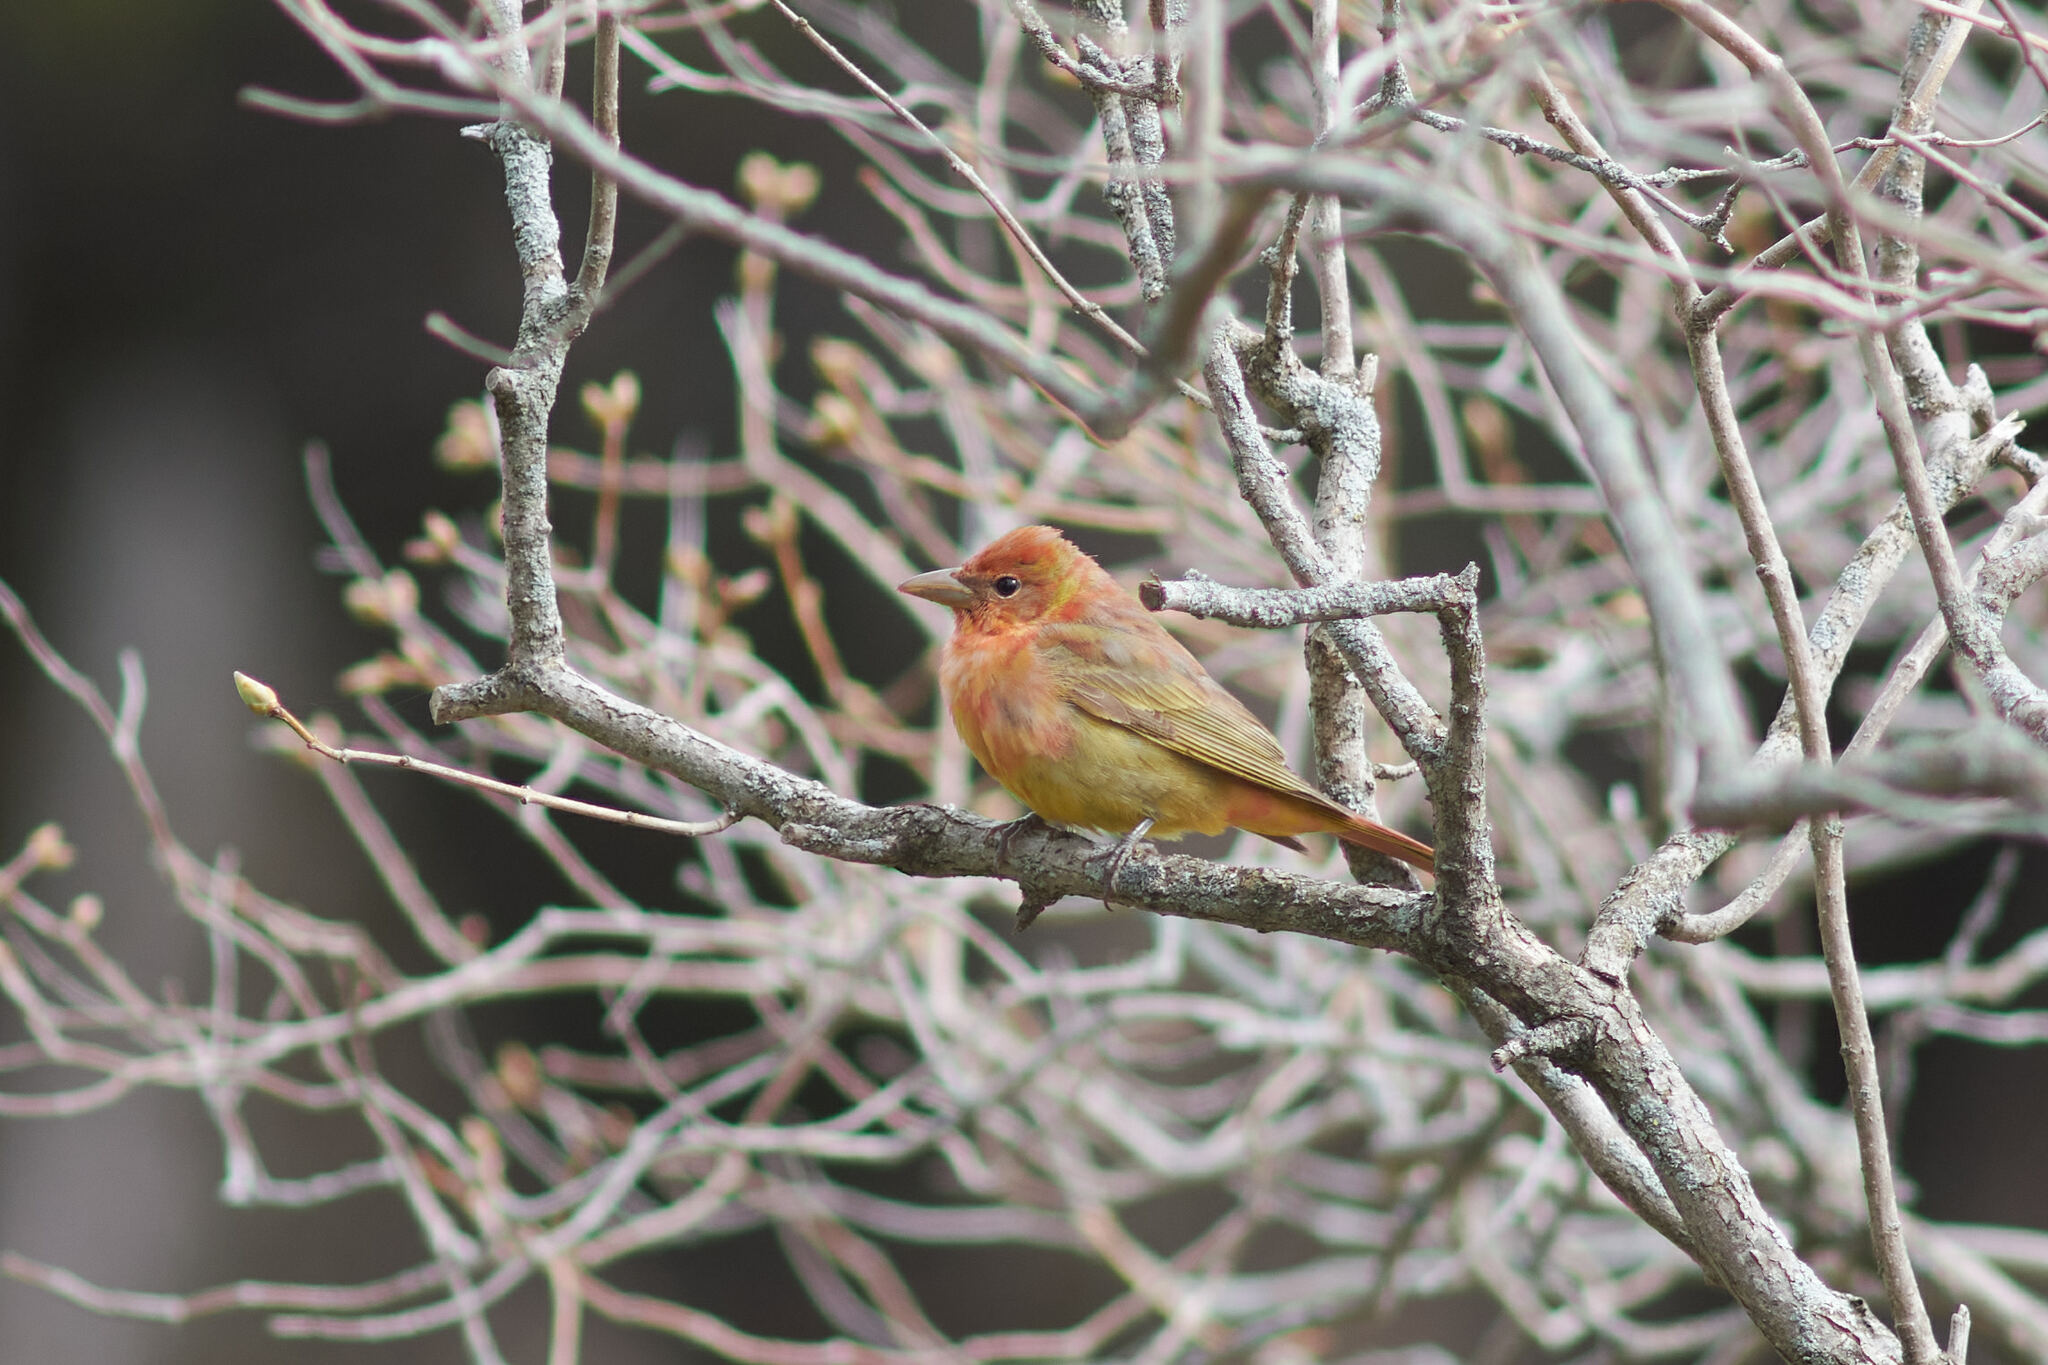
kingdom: Animalia
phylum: Chordata
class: Aves
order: Passeriformes
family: Cardinalidae
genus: Piranga
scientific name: Piranga rubra
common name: Summer tanager
